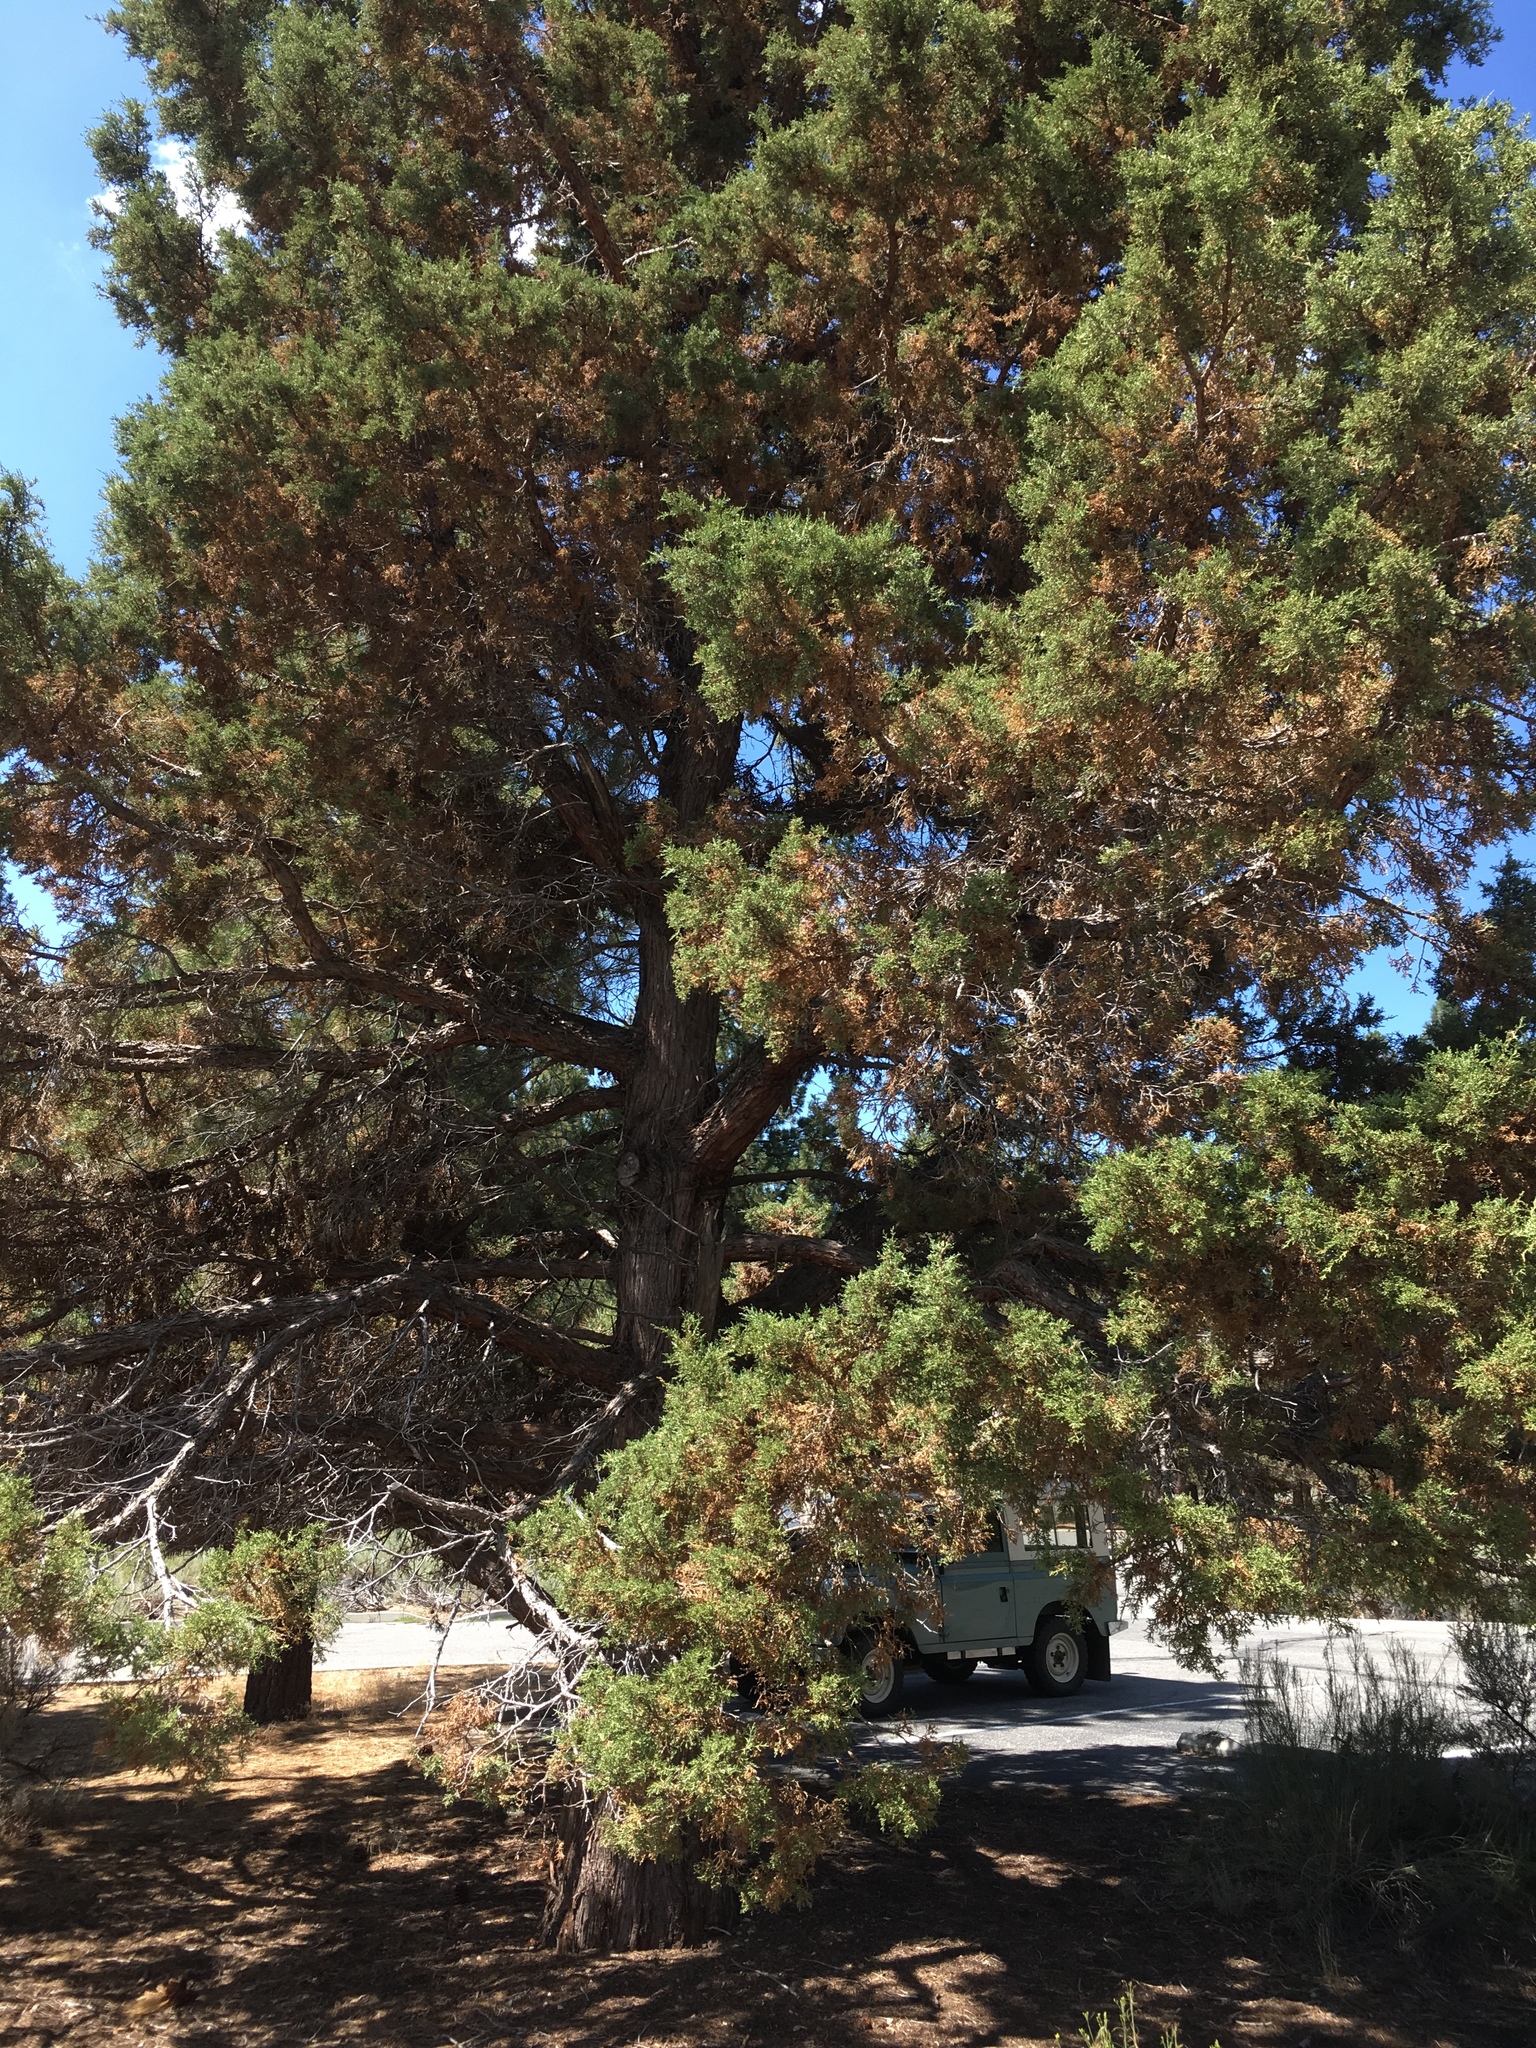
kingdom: Plantae
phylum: Tracheophyta
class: Pinopsida
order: Pinales
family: Cupressaceae
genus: Juniperus
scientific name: Juniperus occidentalis
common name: Western juniper
